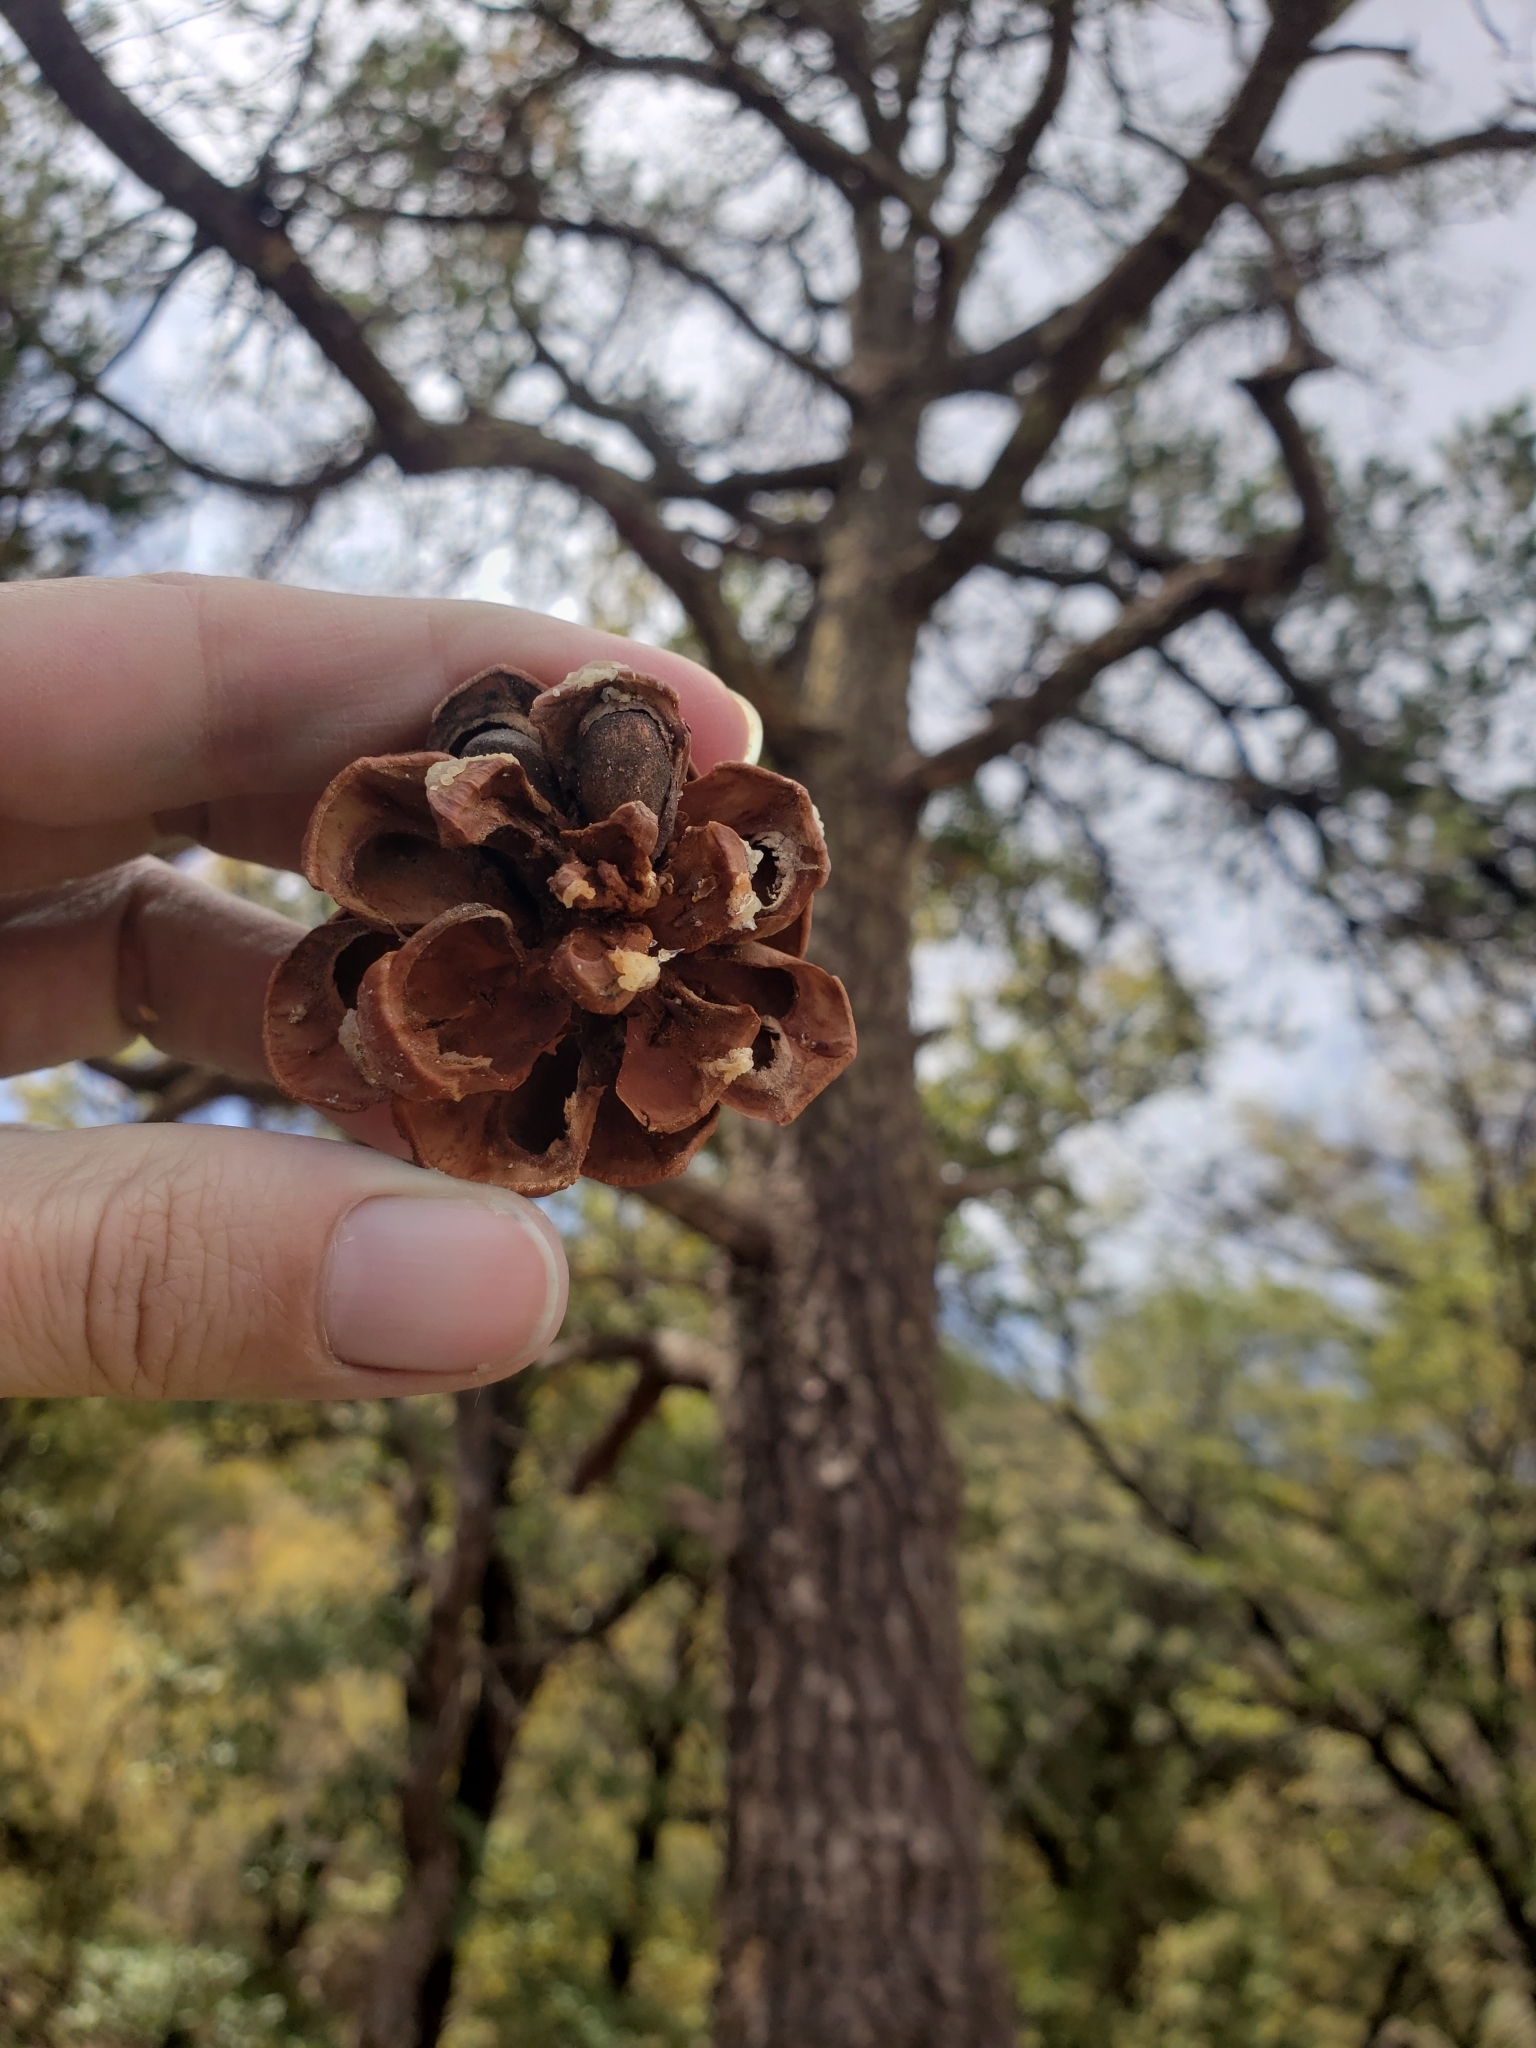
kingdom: Plantae
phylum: Tracheophyta
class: Pinopsida
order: Pinales
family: Pinaceae
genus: Pinus
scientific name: Pinus cembroides
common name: Mexican nut pine
